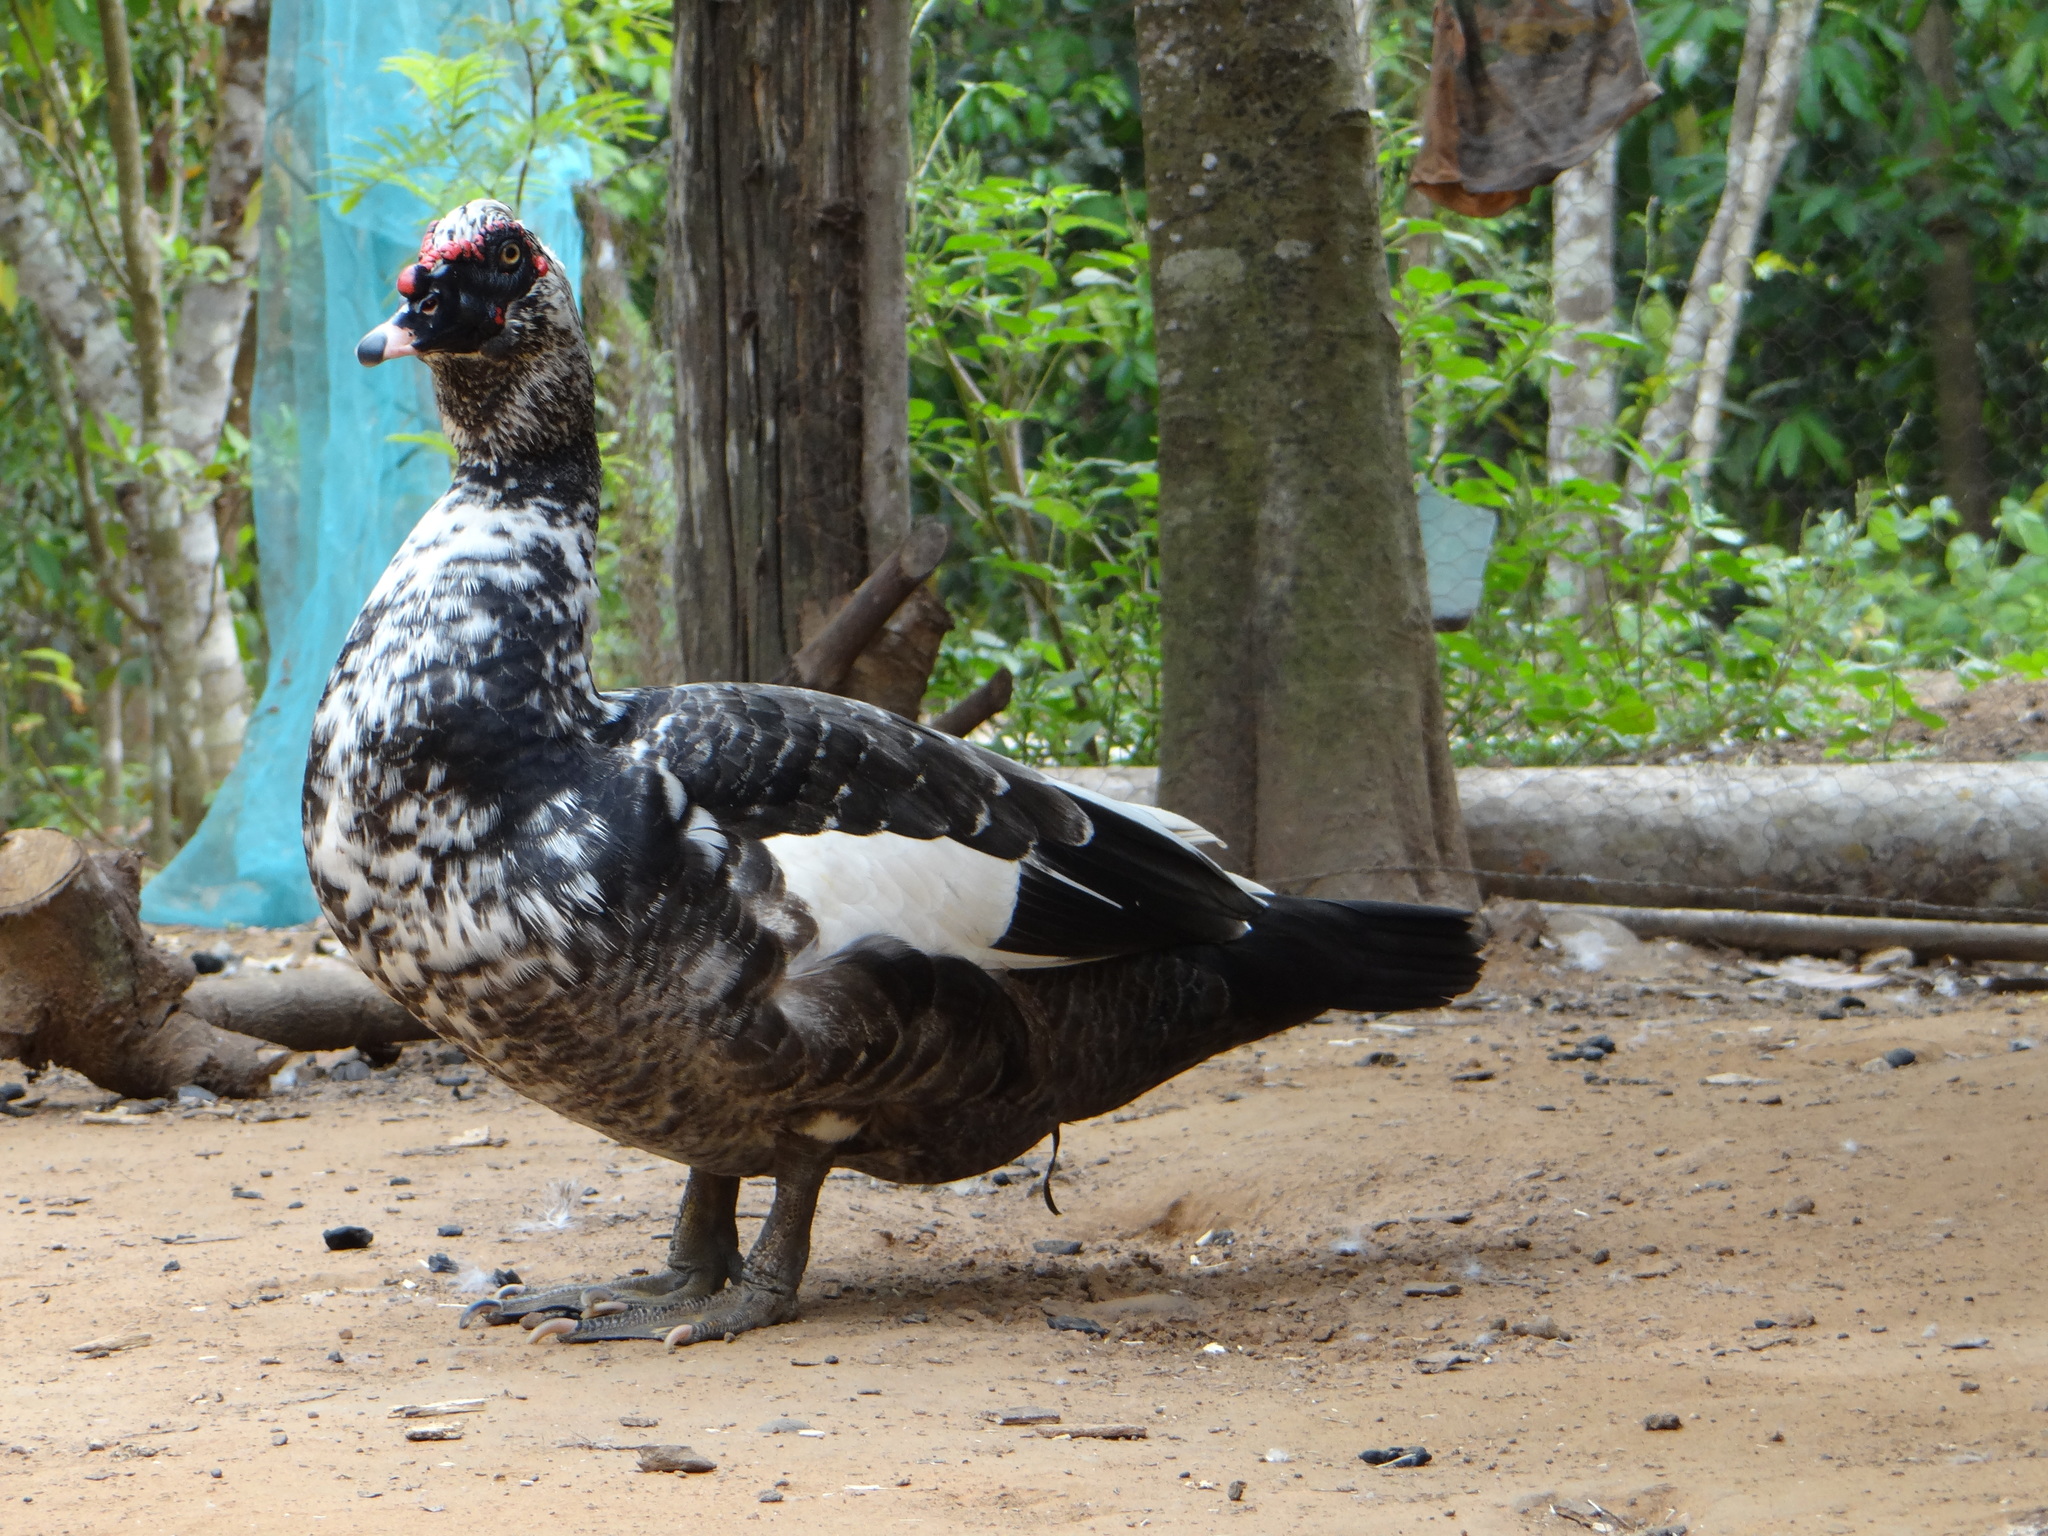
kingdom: Animalia
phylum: Chordata
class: Aves
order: Anseriformes
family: Anatidae
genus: Cairina
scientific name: Cairina moschata
